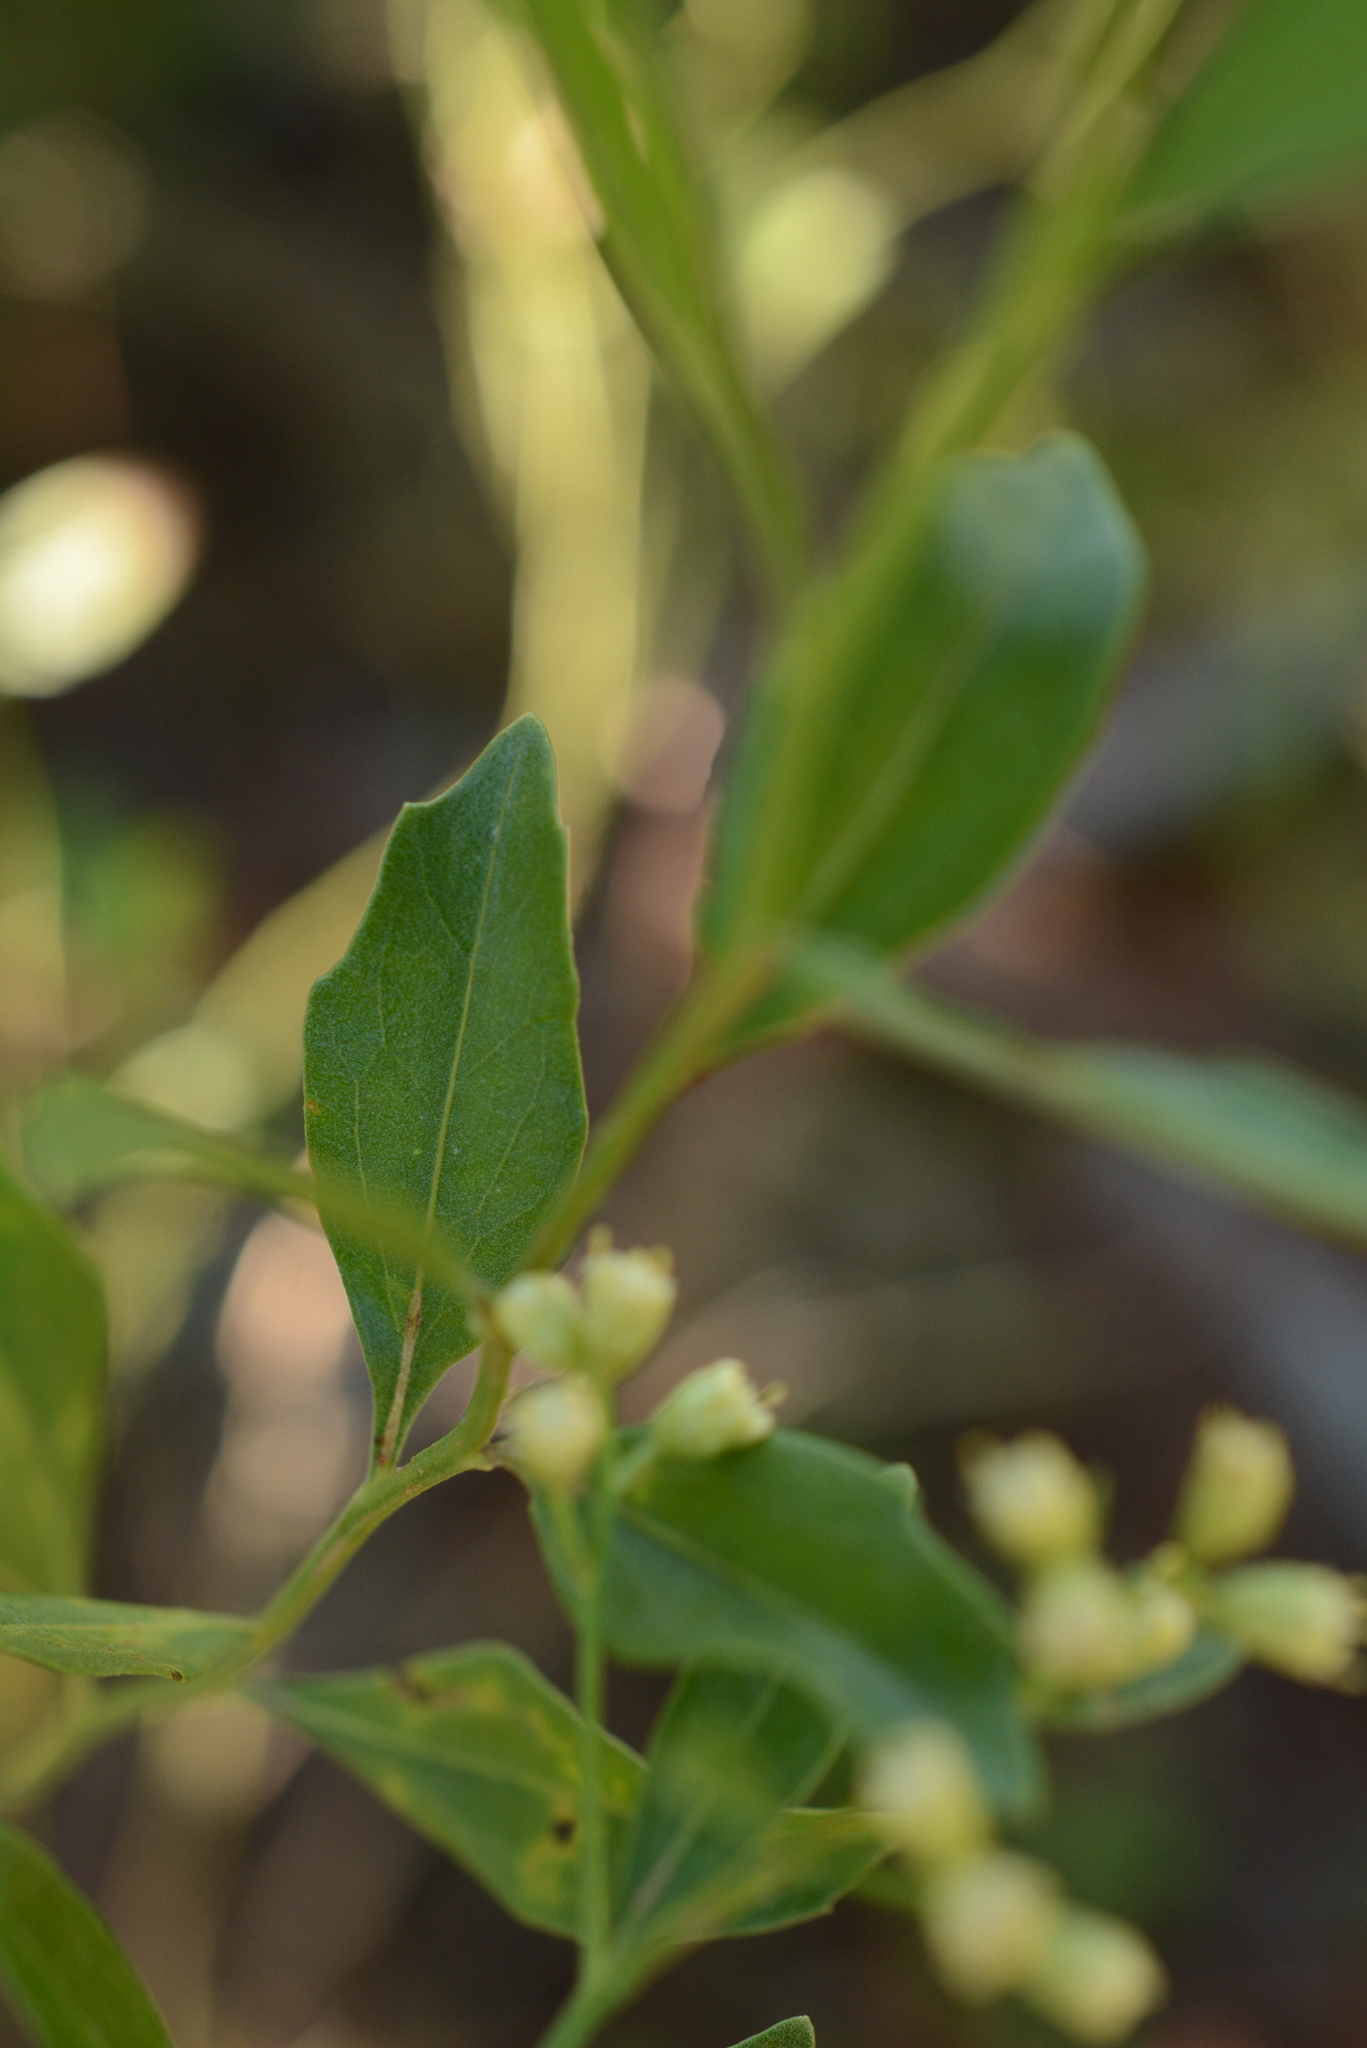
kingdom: Plantae
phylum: Tracheophyta
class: Magnoliopsida
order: Asterales
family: Asteraceae
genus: Baccharis
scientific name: Baccharis halimifolia
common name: Eastern baccharis
